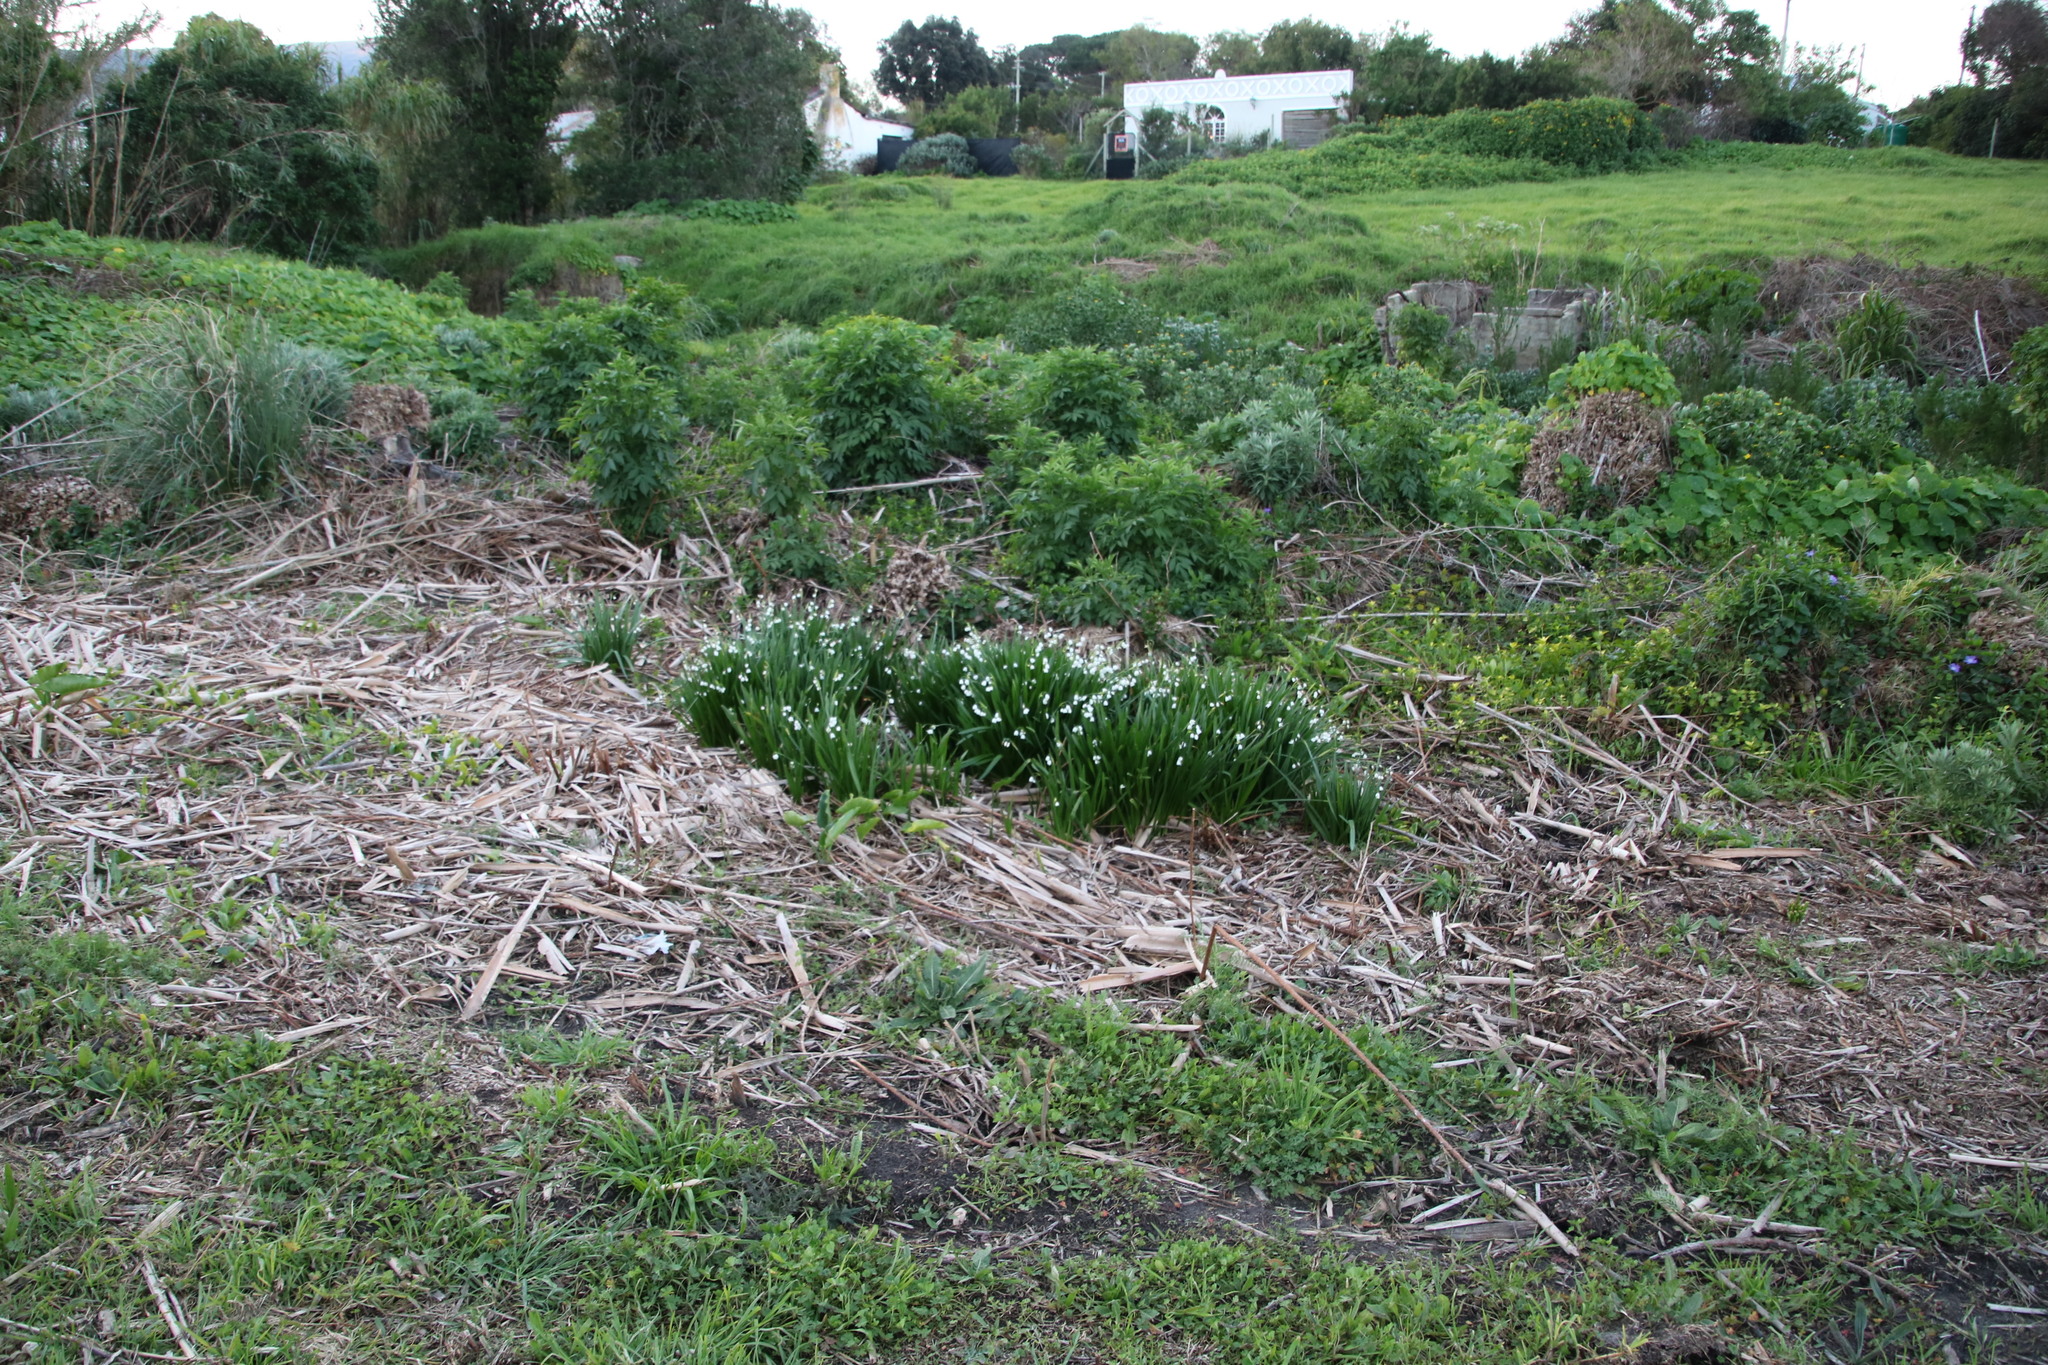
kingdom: Plantae
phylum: Tracheophyta
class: Liliopsida
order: Asparagales
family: Amaryllidaceae
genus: Leucojum
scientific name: Leucojum aestivum
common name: Summer snowflake
